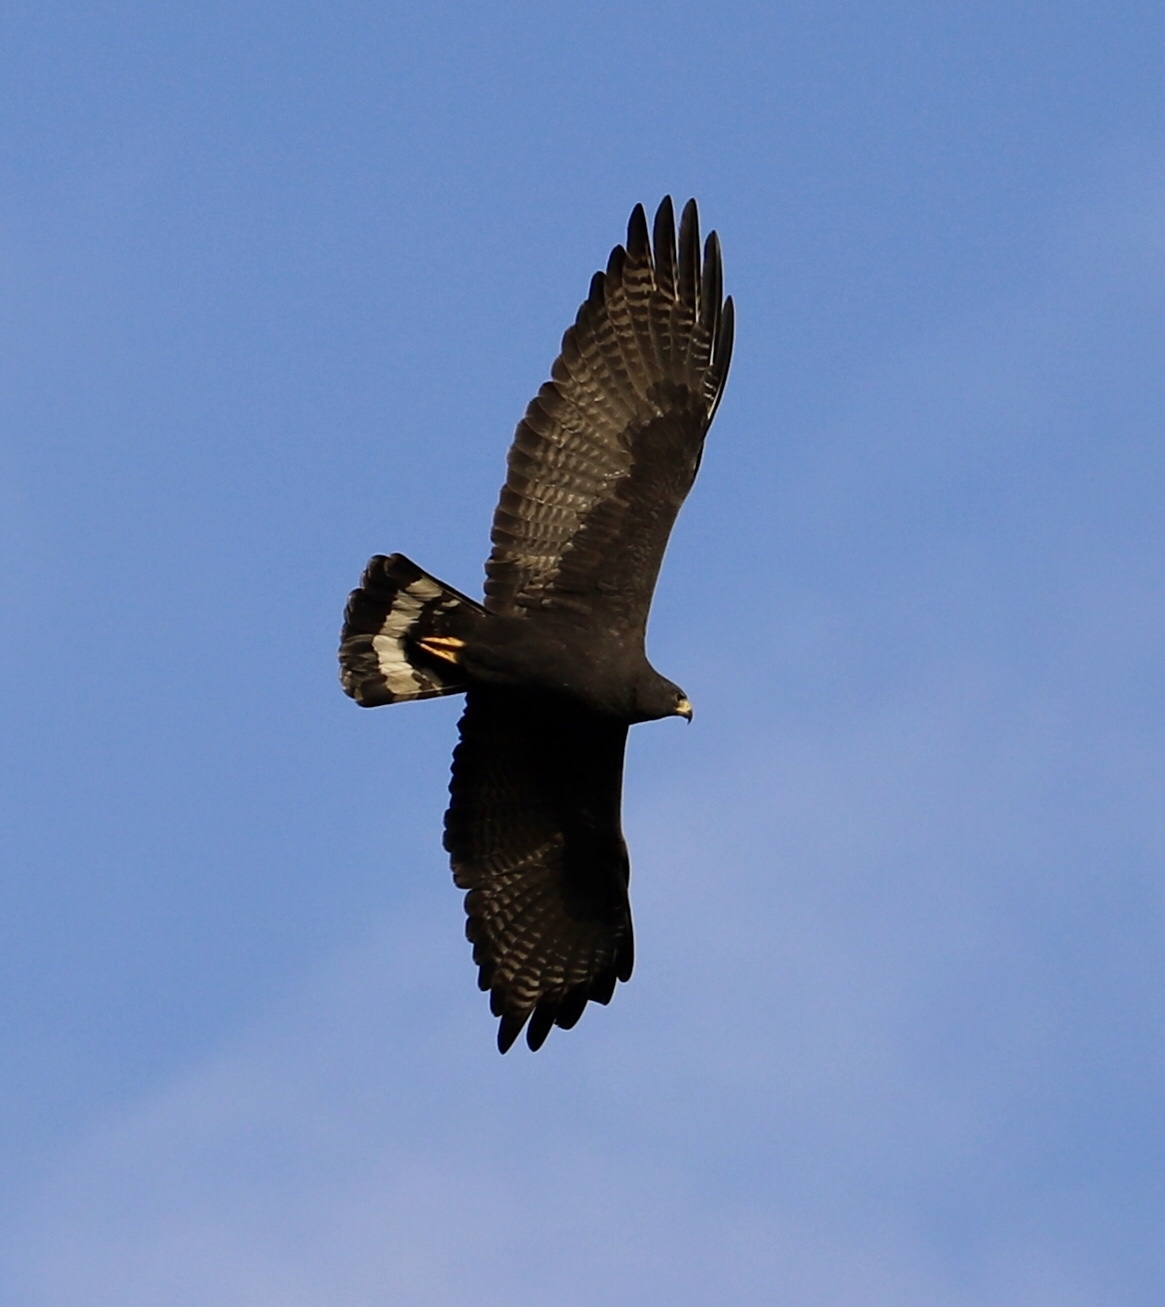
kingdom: Animalia
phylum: Chordata
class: Aves
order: Accipitriformes
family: Accipitridae
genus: Buteo
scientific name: Buteo albonotatus
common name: Zone-tailed hawk
